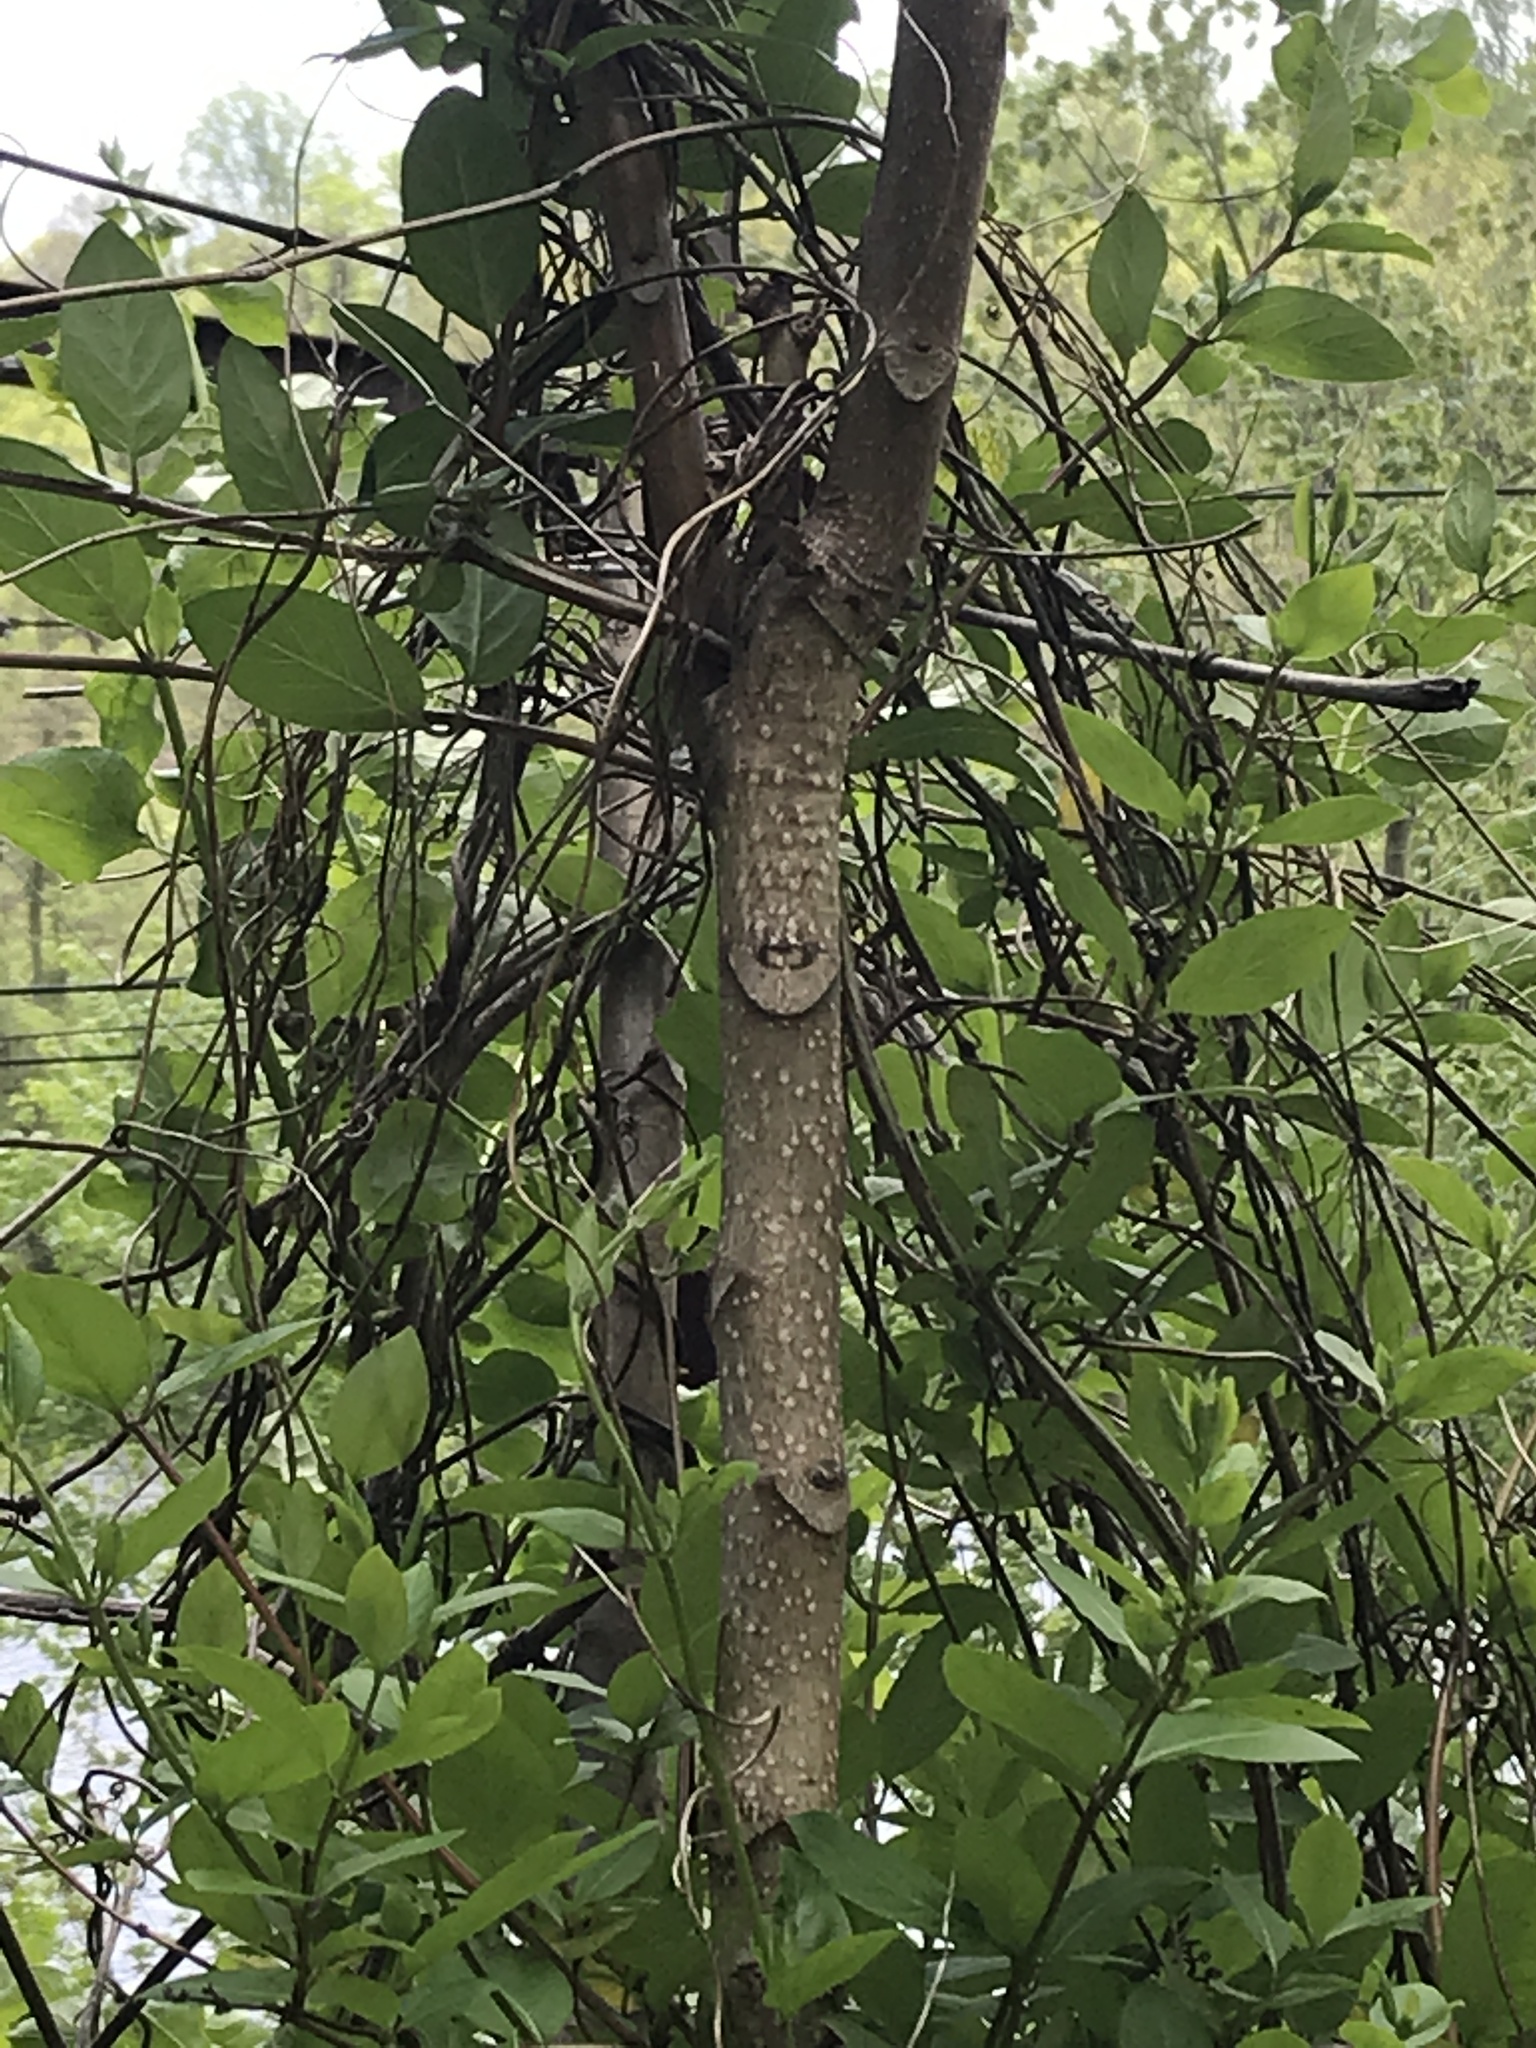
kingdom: Plantae
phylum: Tracheophyta
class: Magnoliopsida
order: Sapindales
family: Simaroubaceae
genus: Ailanthus
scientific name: Ailanthus altissima
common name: Tree-of-heaven
